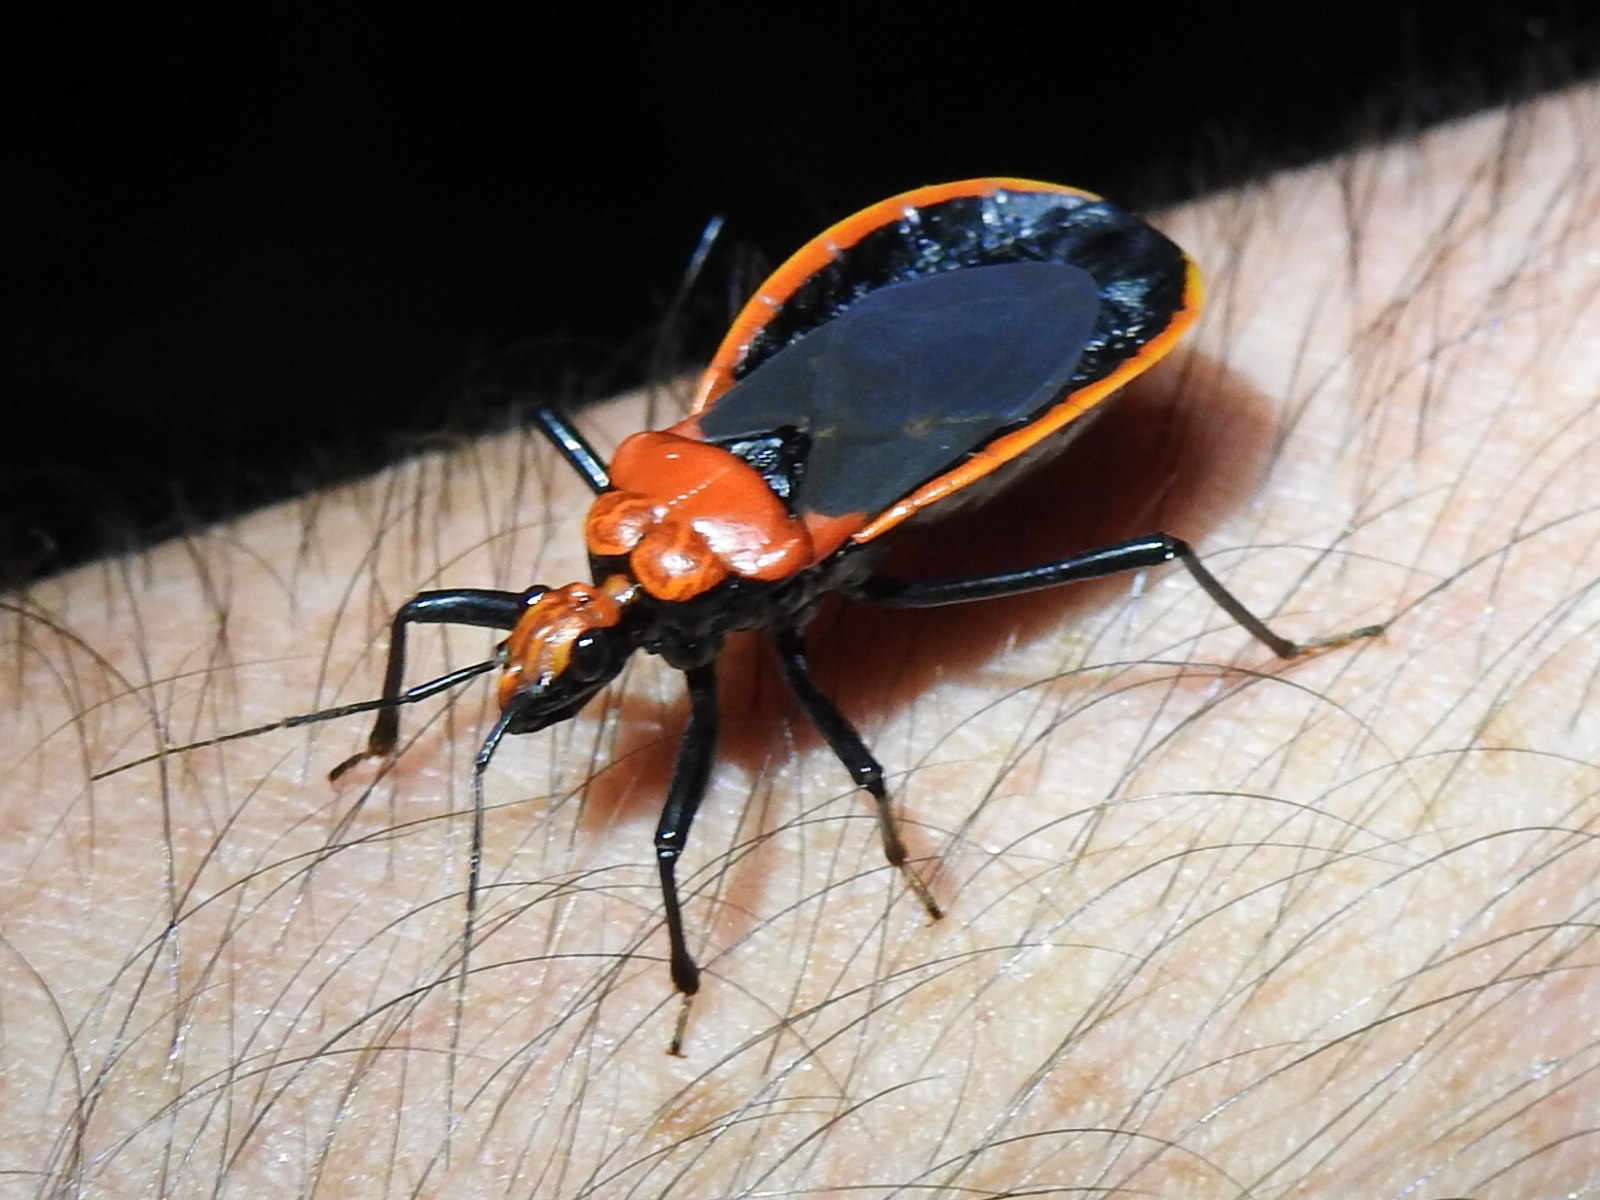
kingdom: Animalia
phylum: Arthropoda
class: Insecta
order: Hemiptera
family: Reduviidae
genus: Rhiginia
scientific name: Rhiginia crudelis
